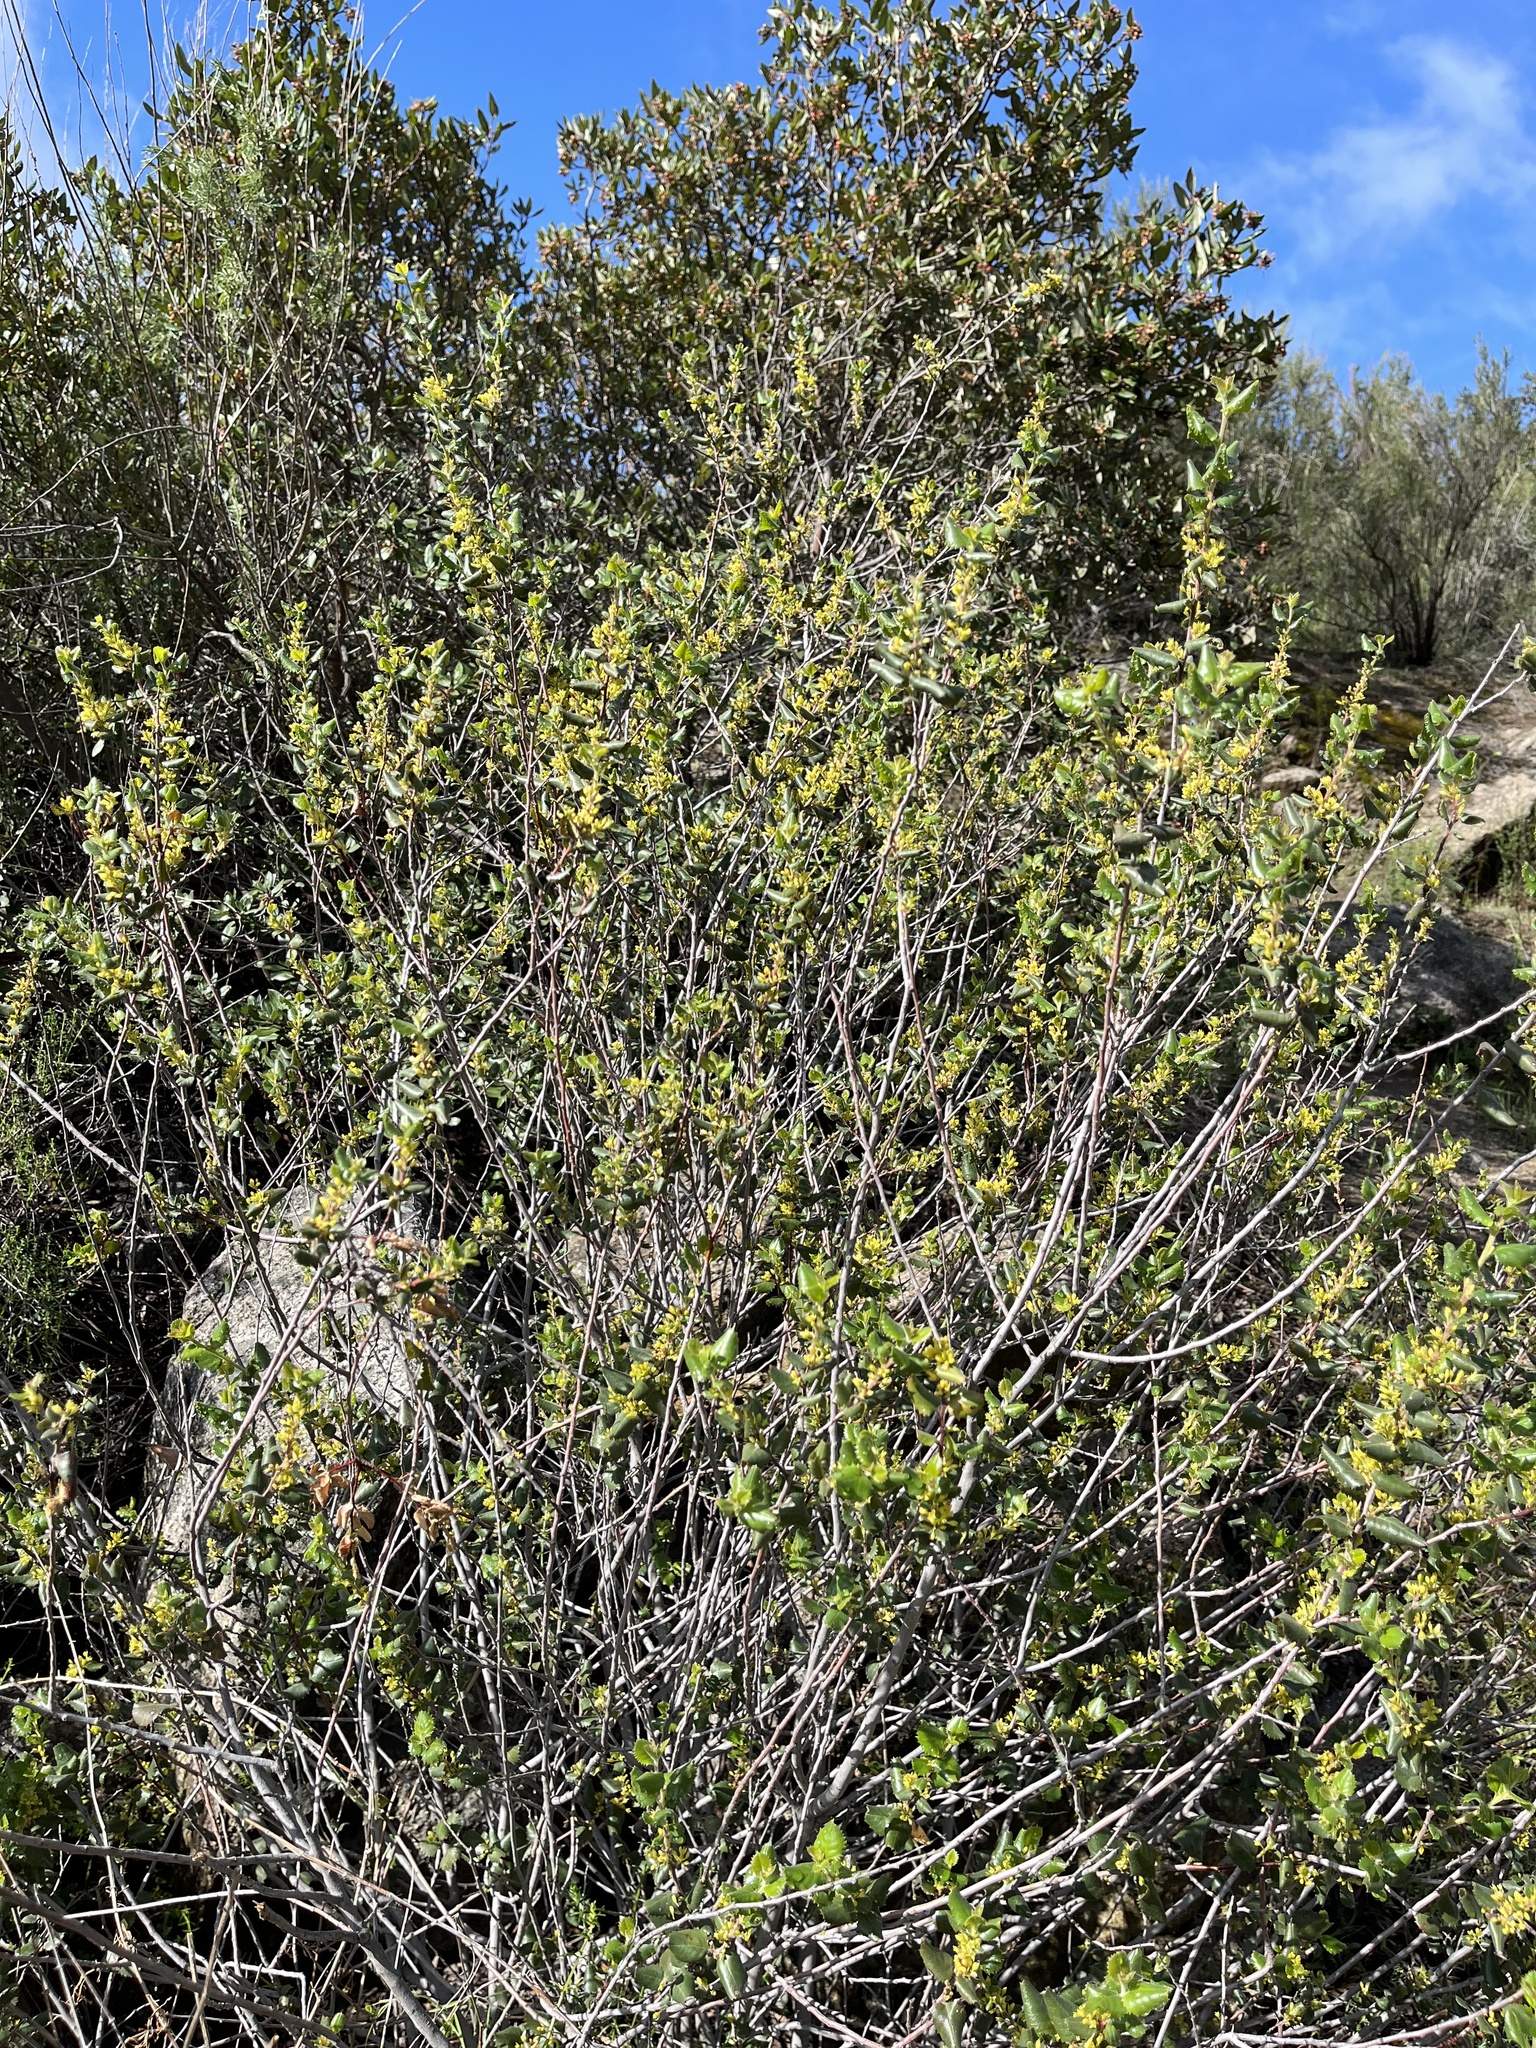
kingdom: Plantae
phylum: Tracheophyta
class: Magnoliopsida
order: Rosales
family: Rhamnaceae
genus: Endotropis
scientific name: Endotropis crocea
